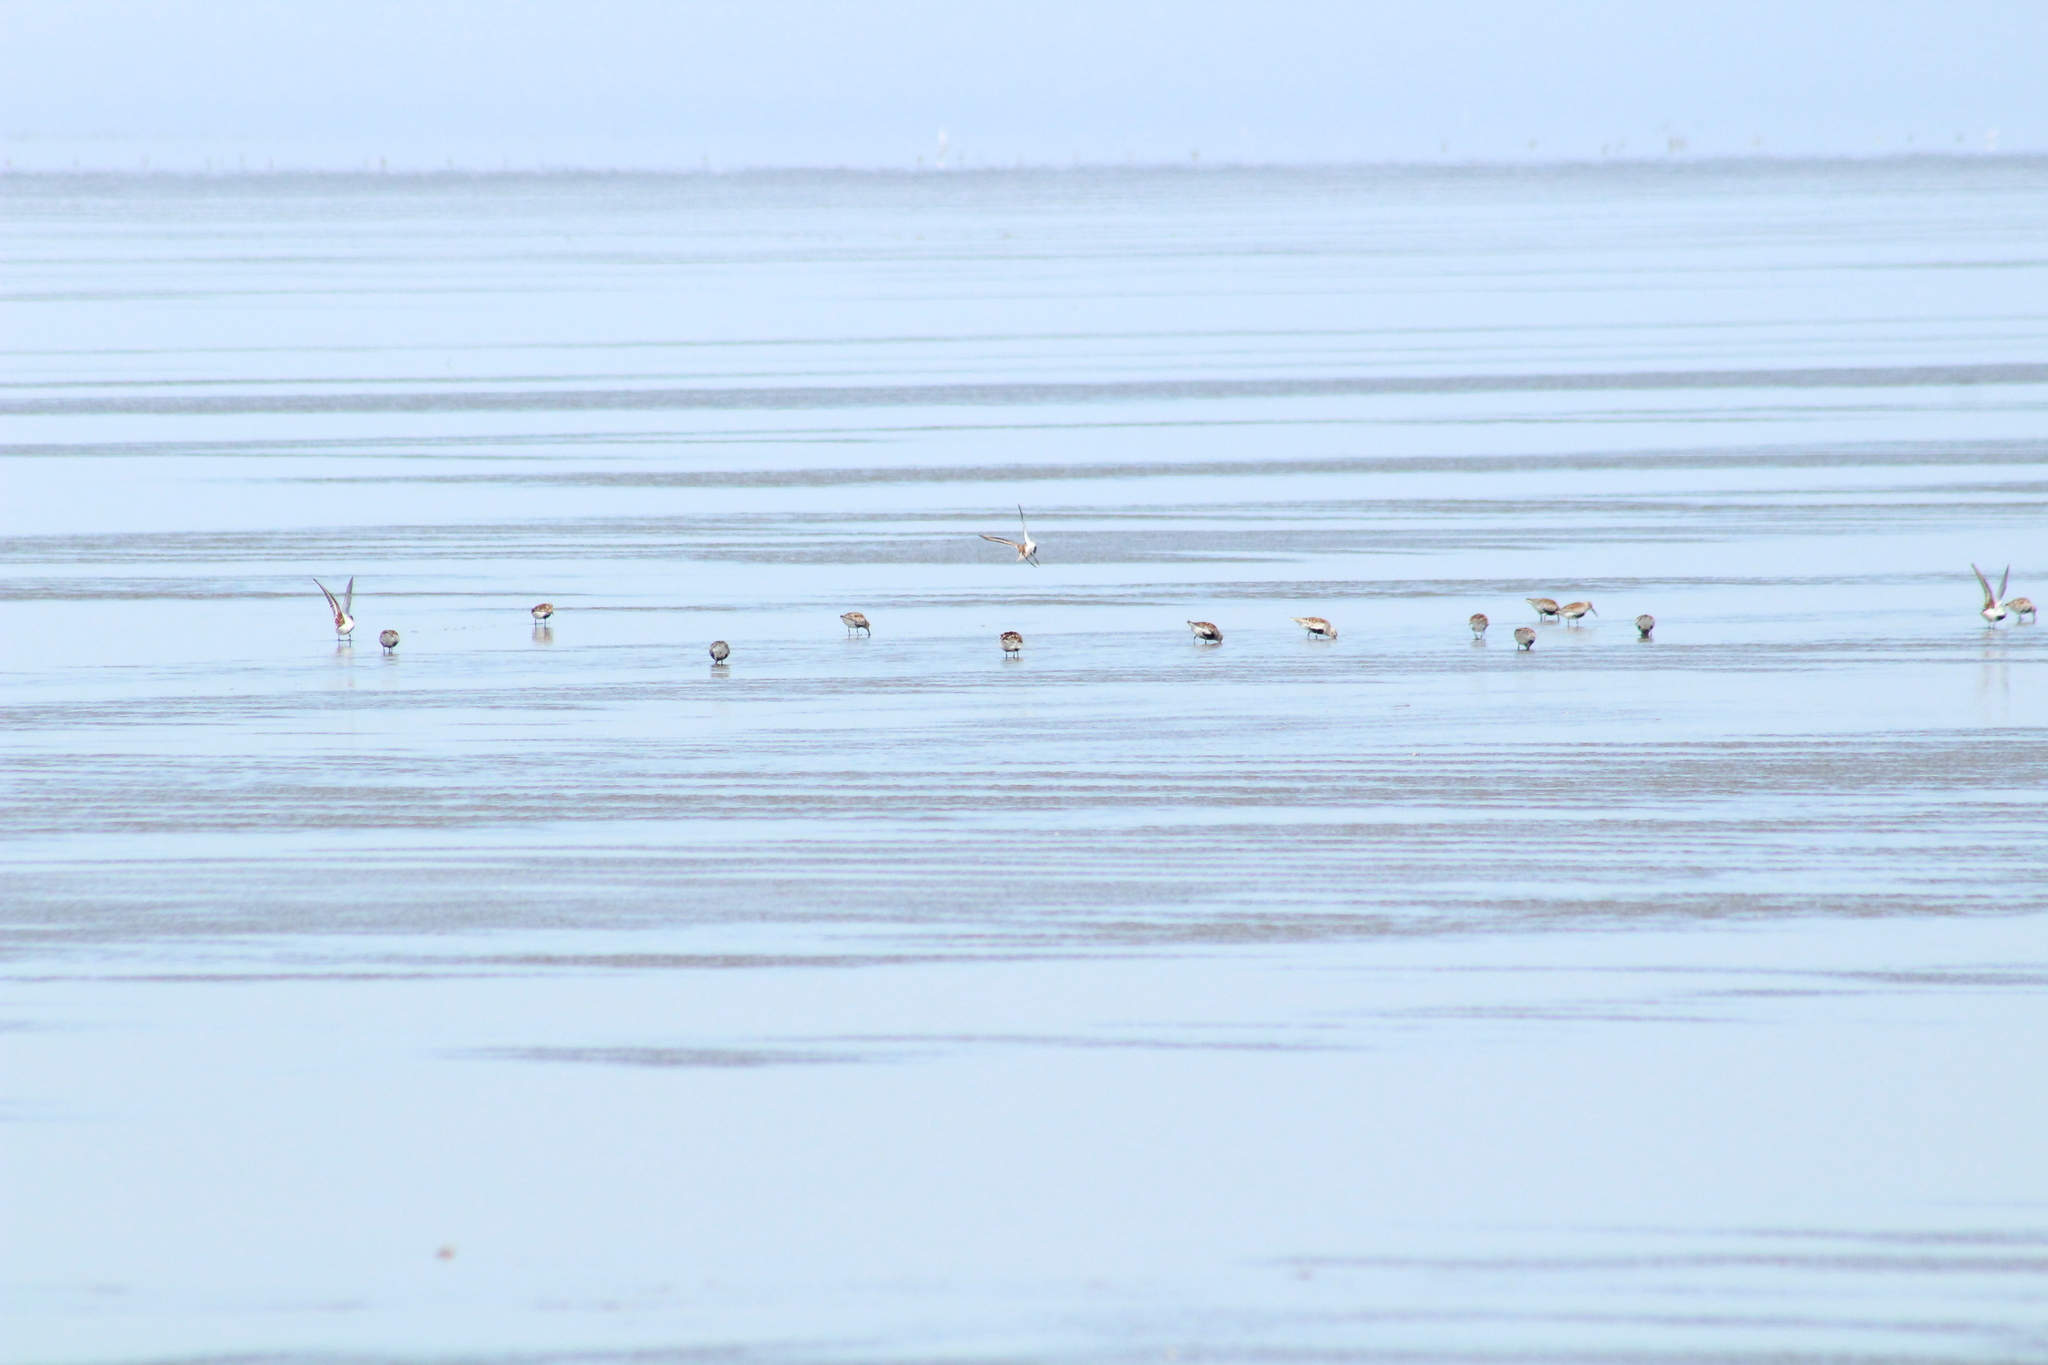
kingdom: Animalia
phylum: Chordata
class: Aves
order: Charadriiformes
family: Scolopacidae
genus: Calidris
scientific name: Calidris alpina
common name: Dunlin
